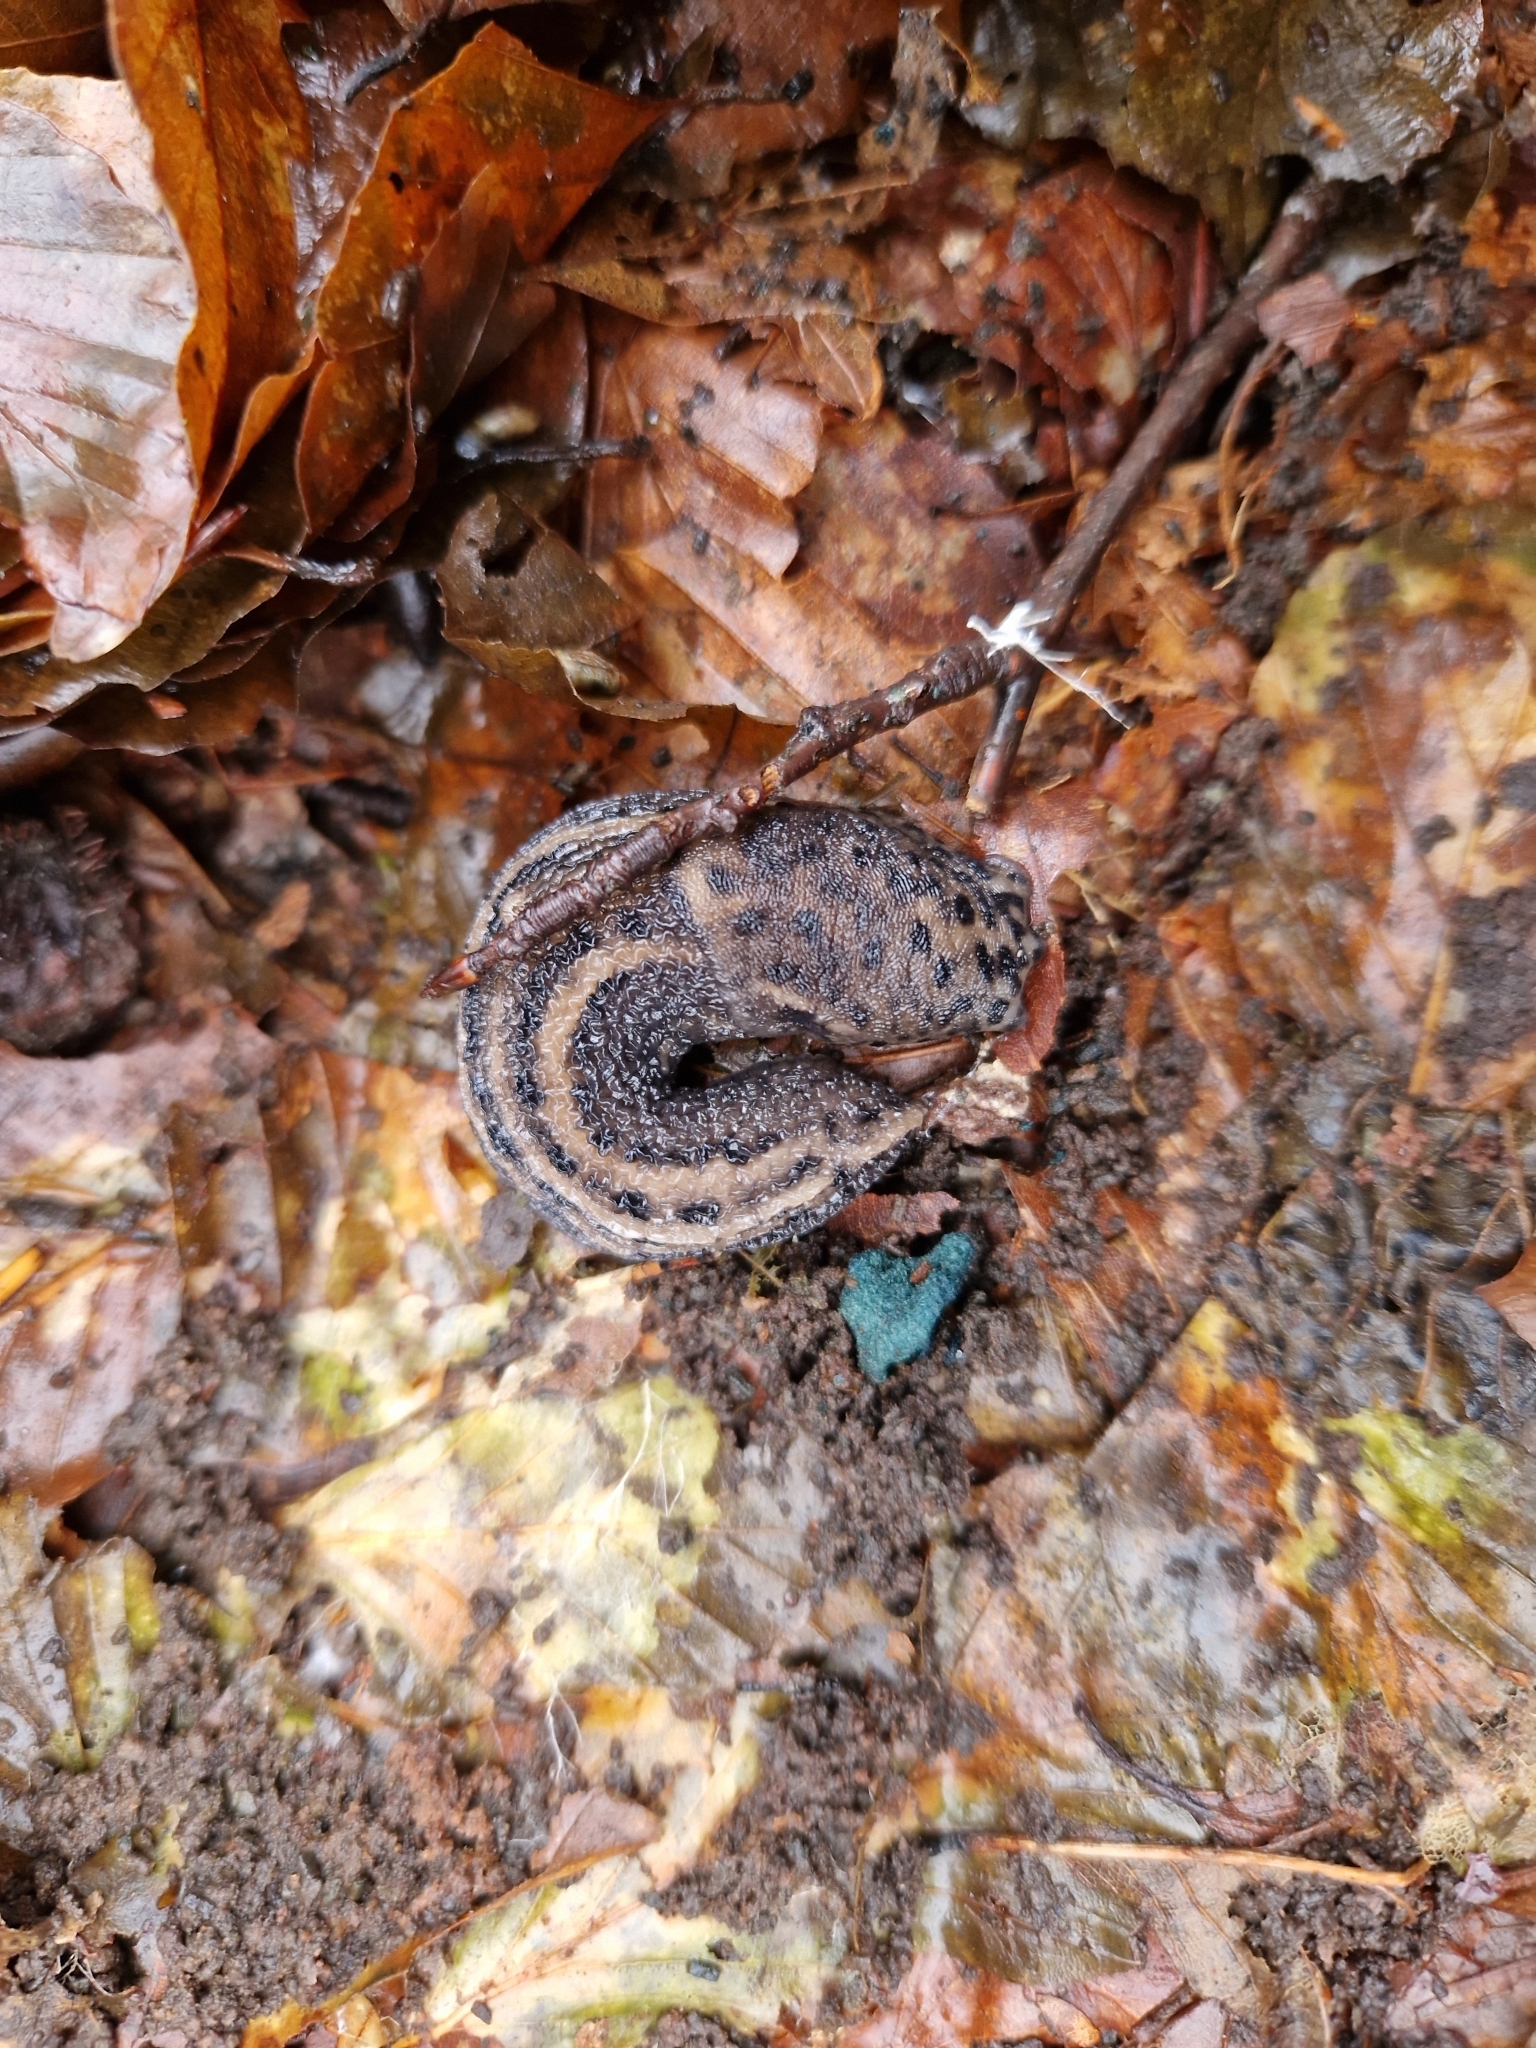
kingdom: Animalia
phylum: Mollusca
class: Gastropoda
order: Stylommatophora
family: Limacidae
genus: Limax
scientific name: Limax maximus
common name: Great grey slug
